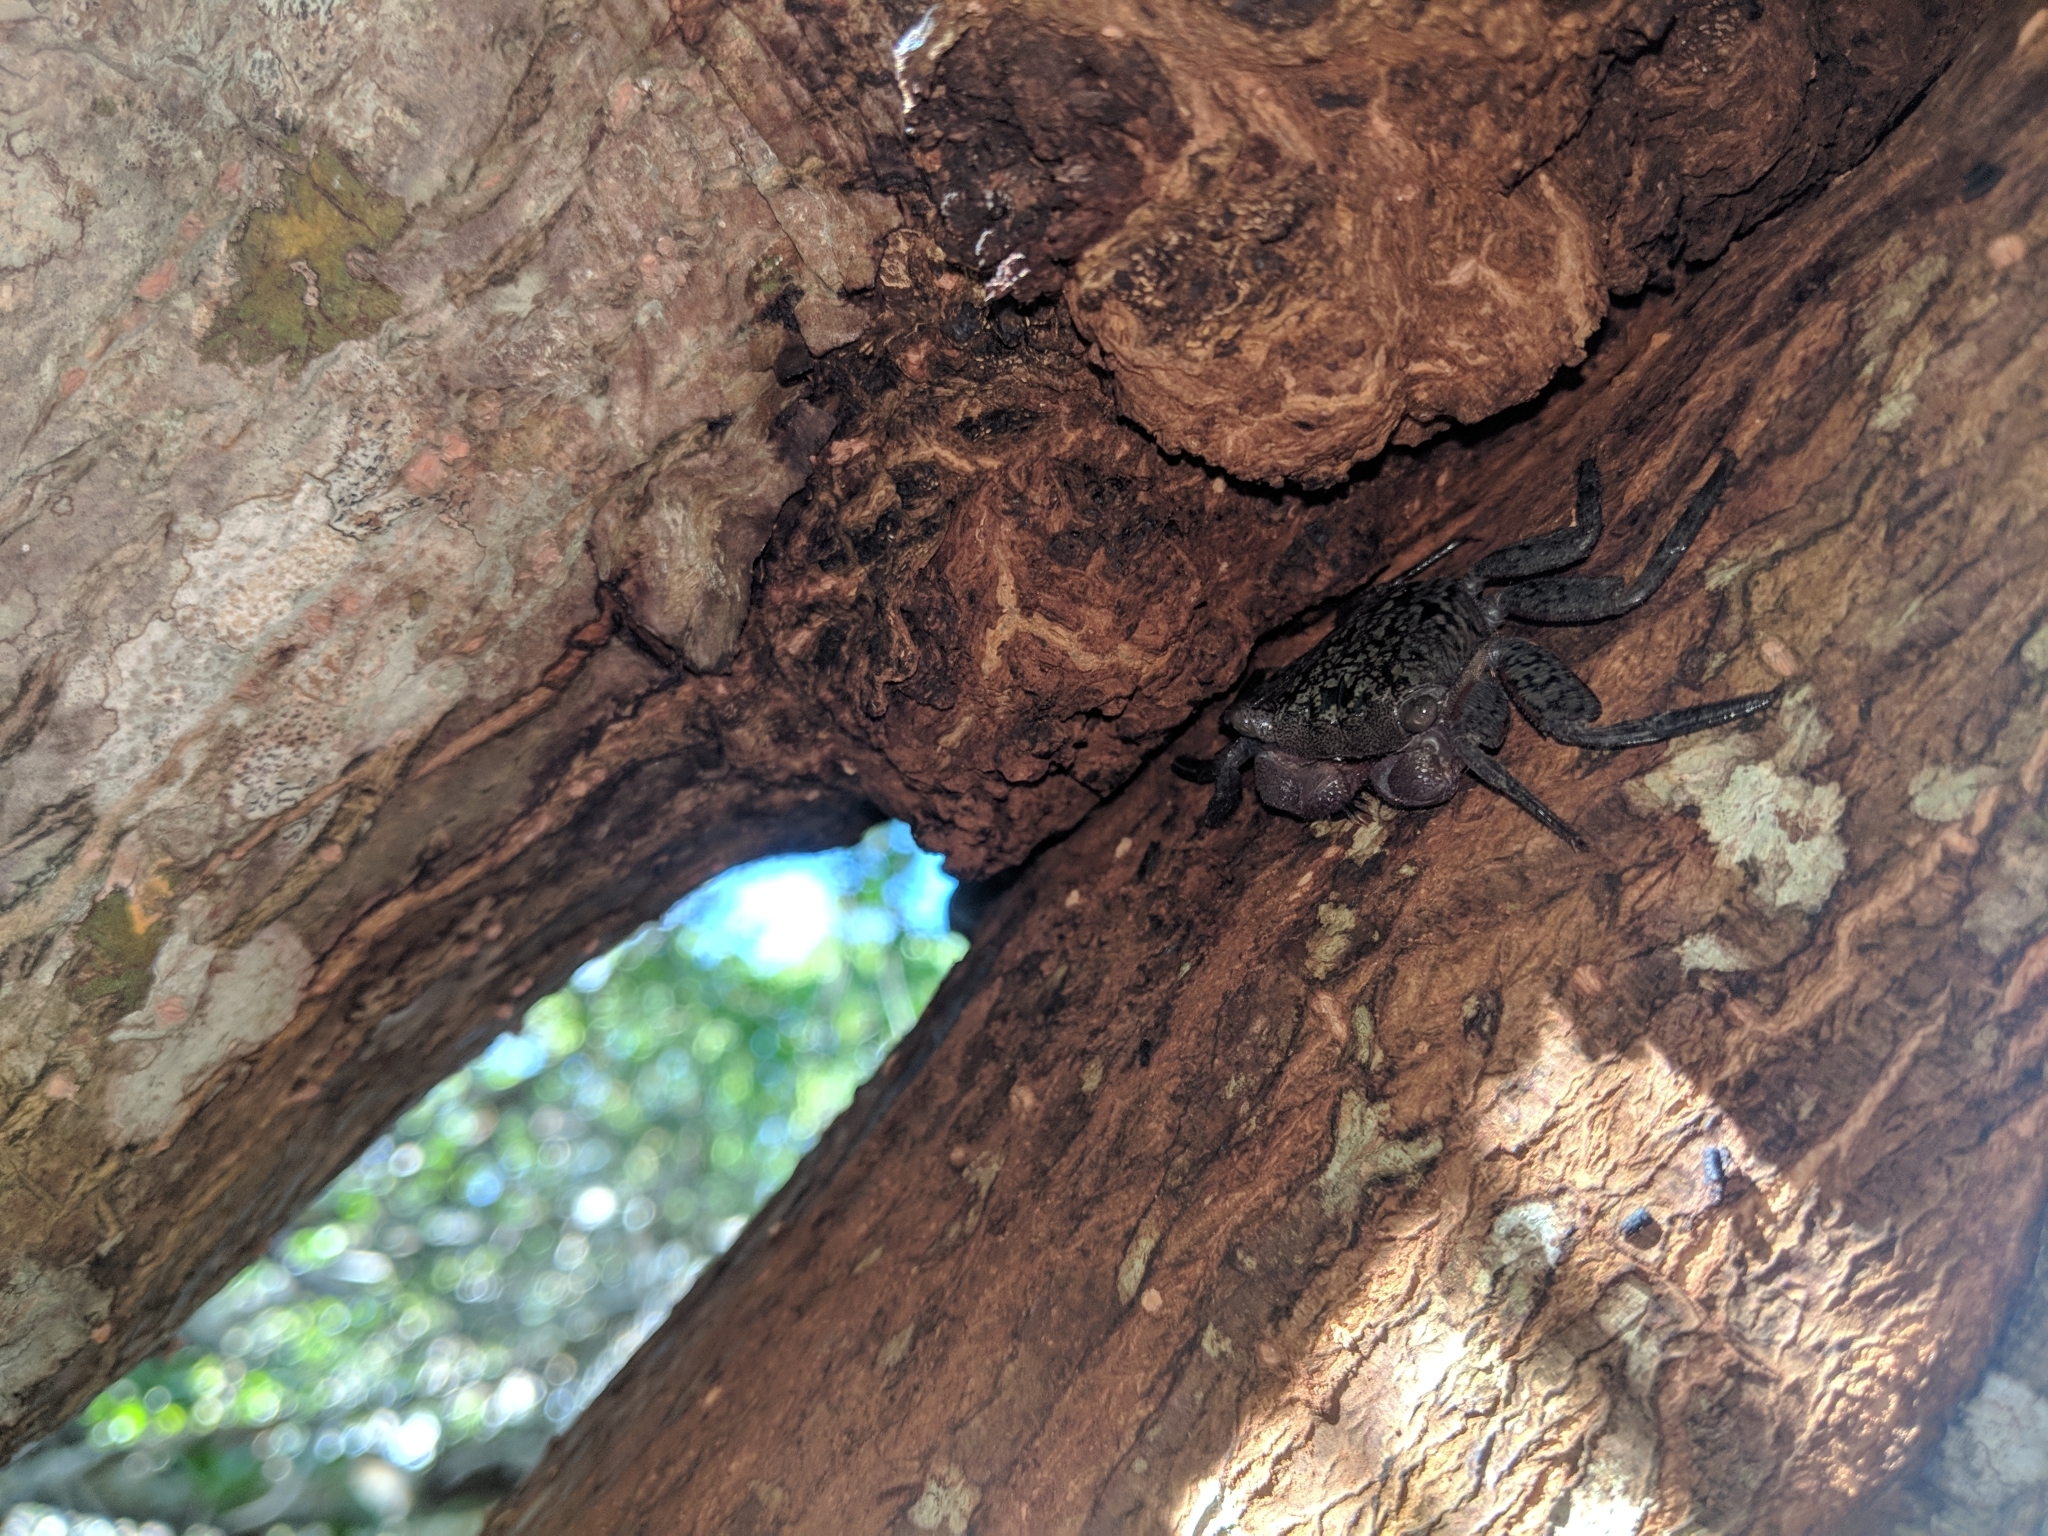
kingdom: Animalia
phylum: Arthropoda
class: Malacostraca
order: Decapoda
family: Sesarmidae
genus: Aratus
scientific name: Aratus pisonii
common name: Mangrove crab
